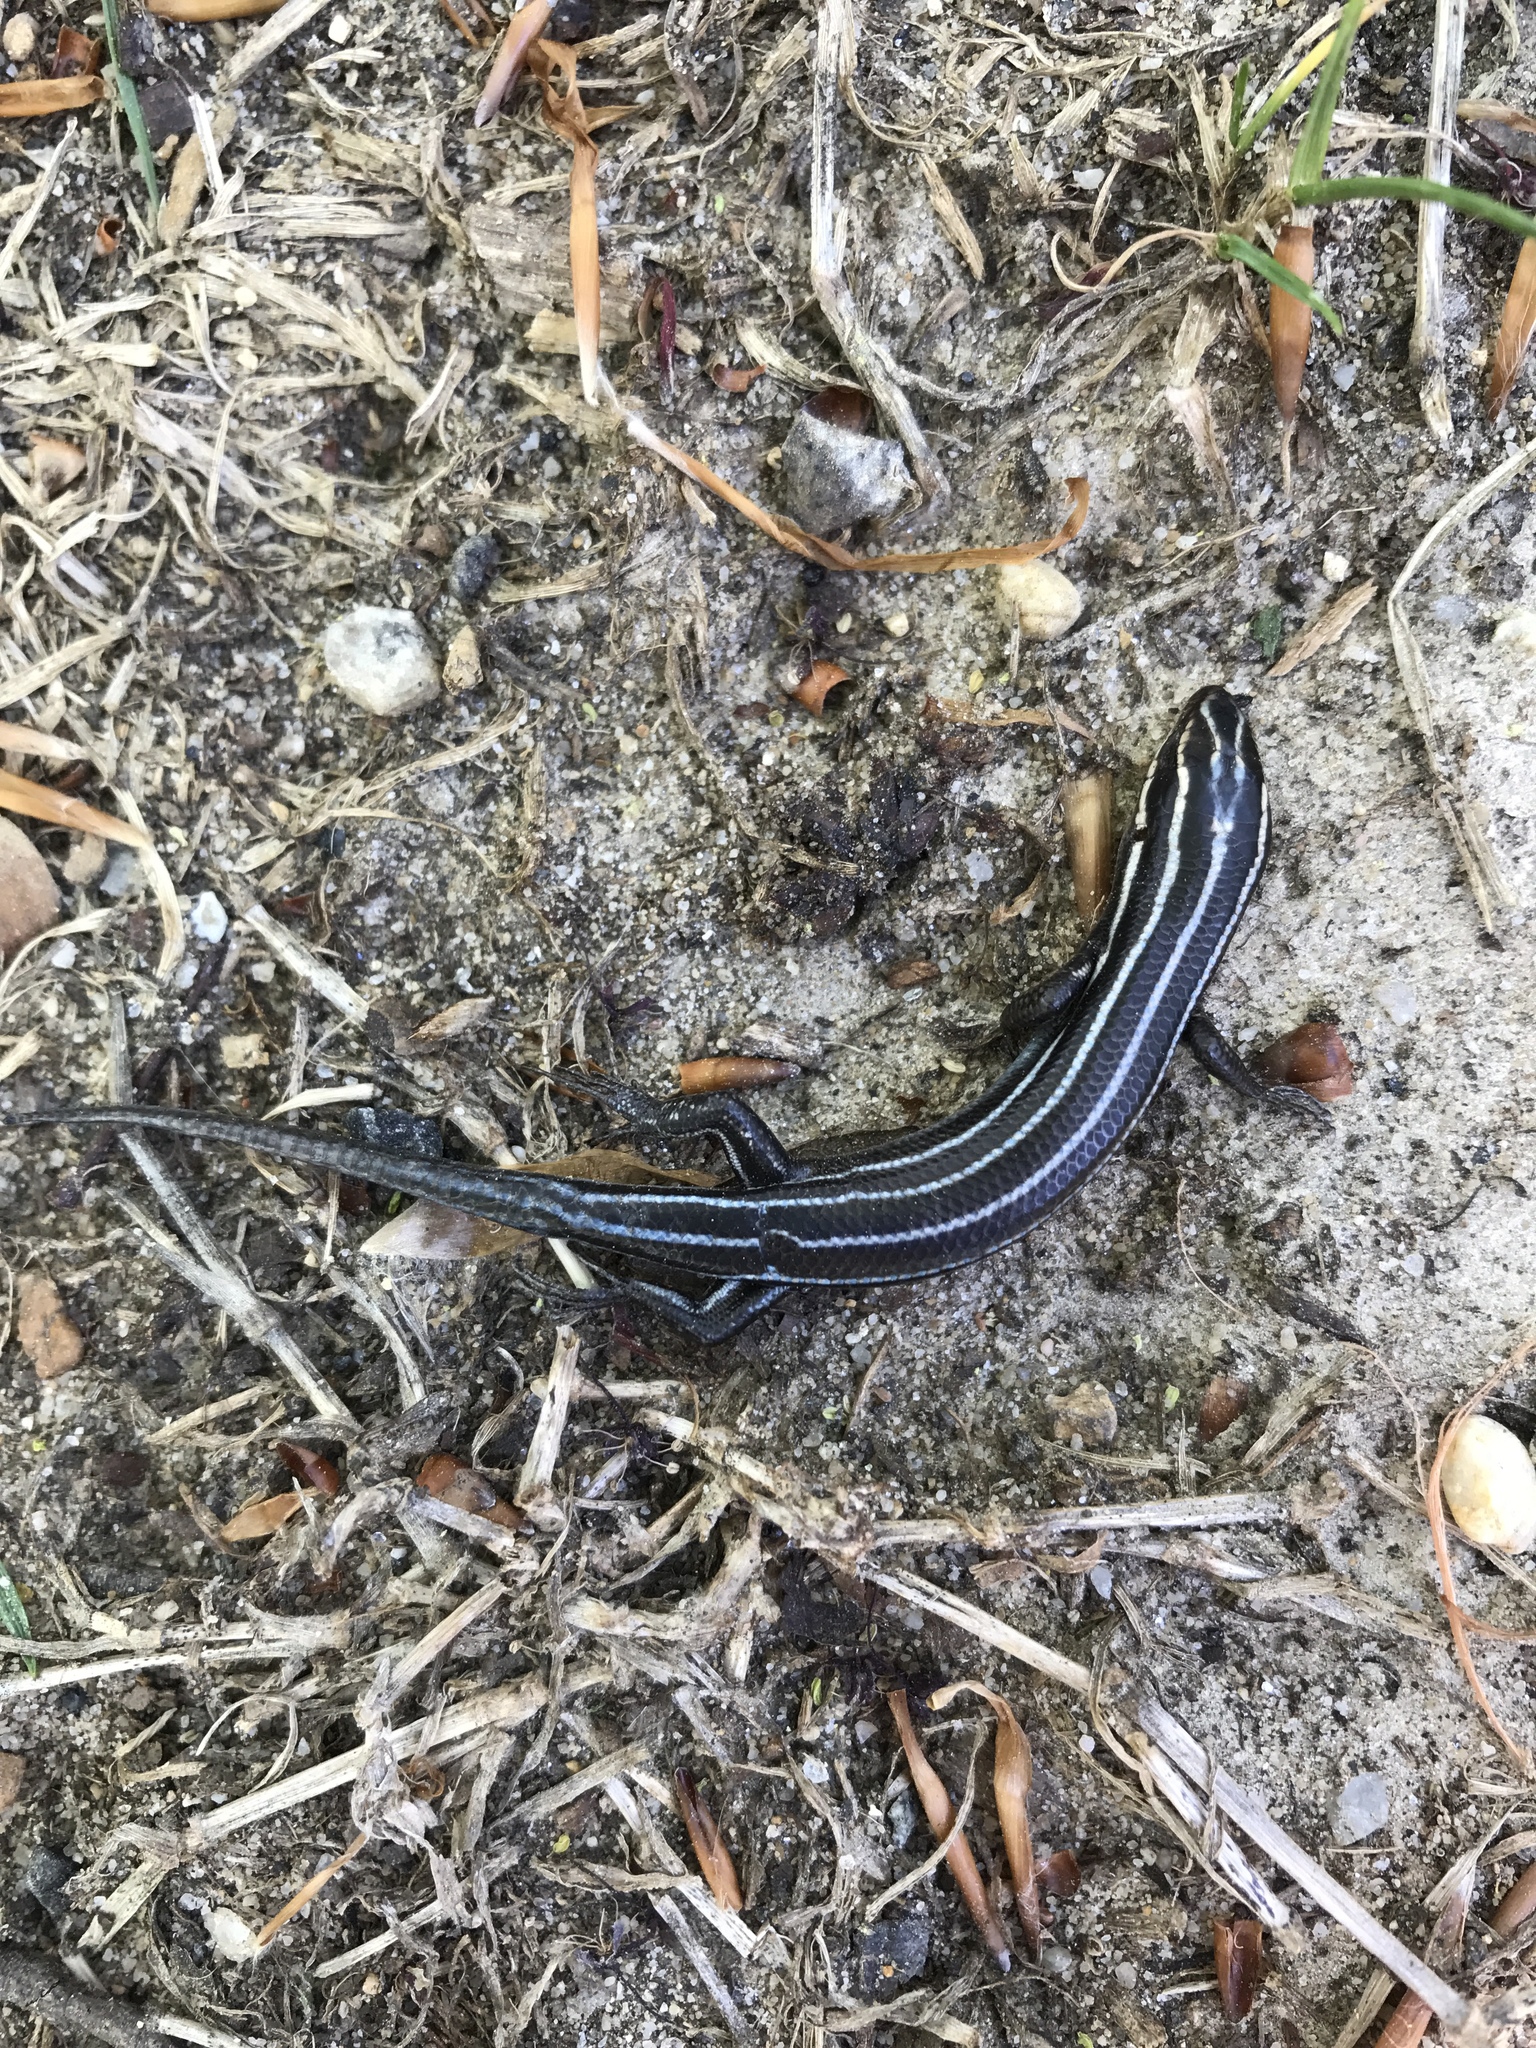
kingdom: Animalia
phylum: Chordata
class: Squamata
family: Scincidae
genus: Plestiodon
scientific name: Plestiodon fasciatus
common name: Five-lined skink
